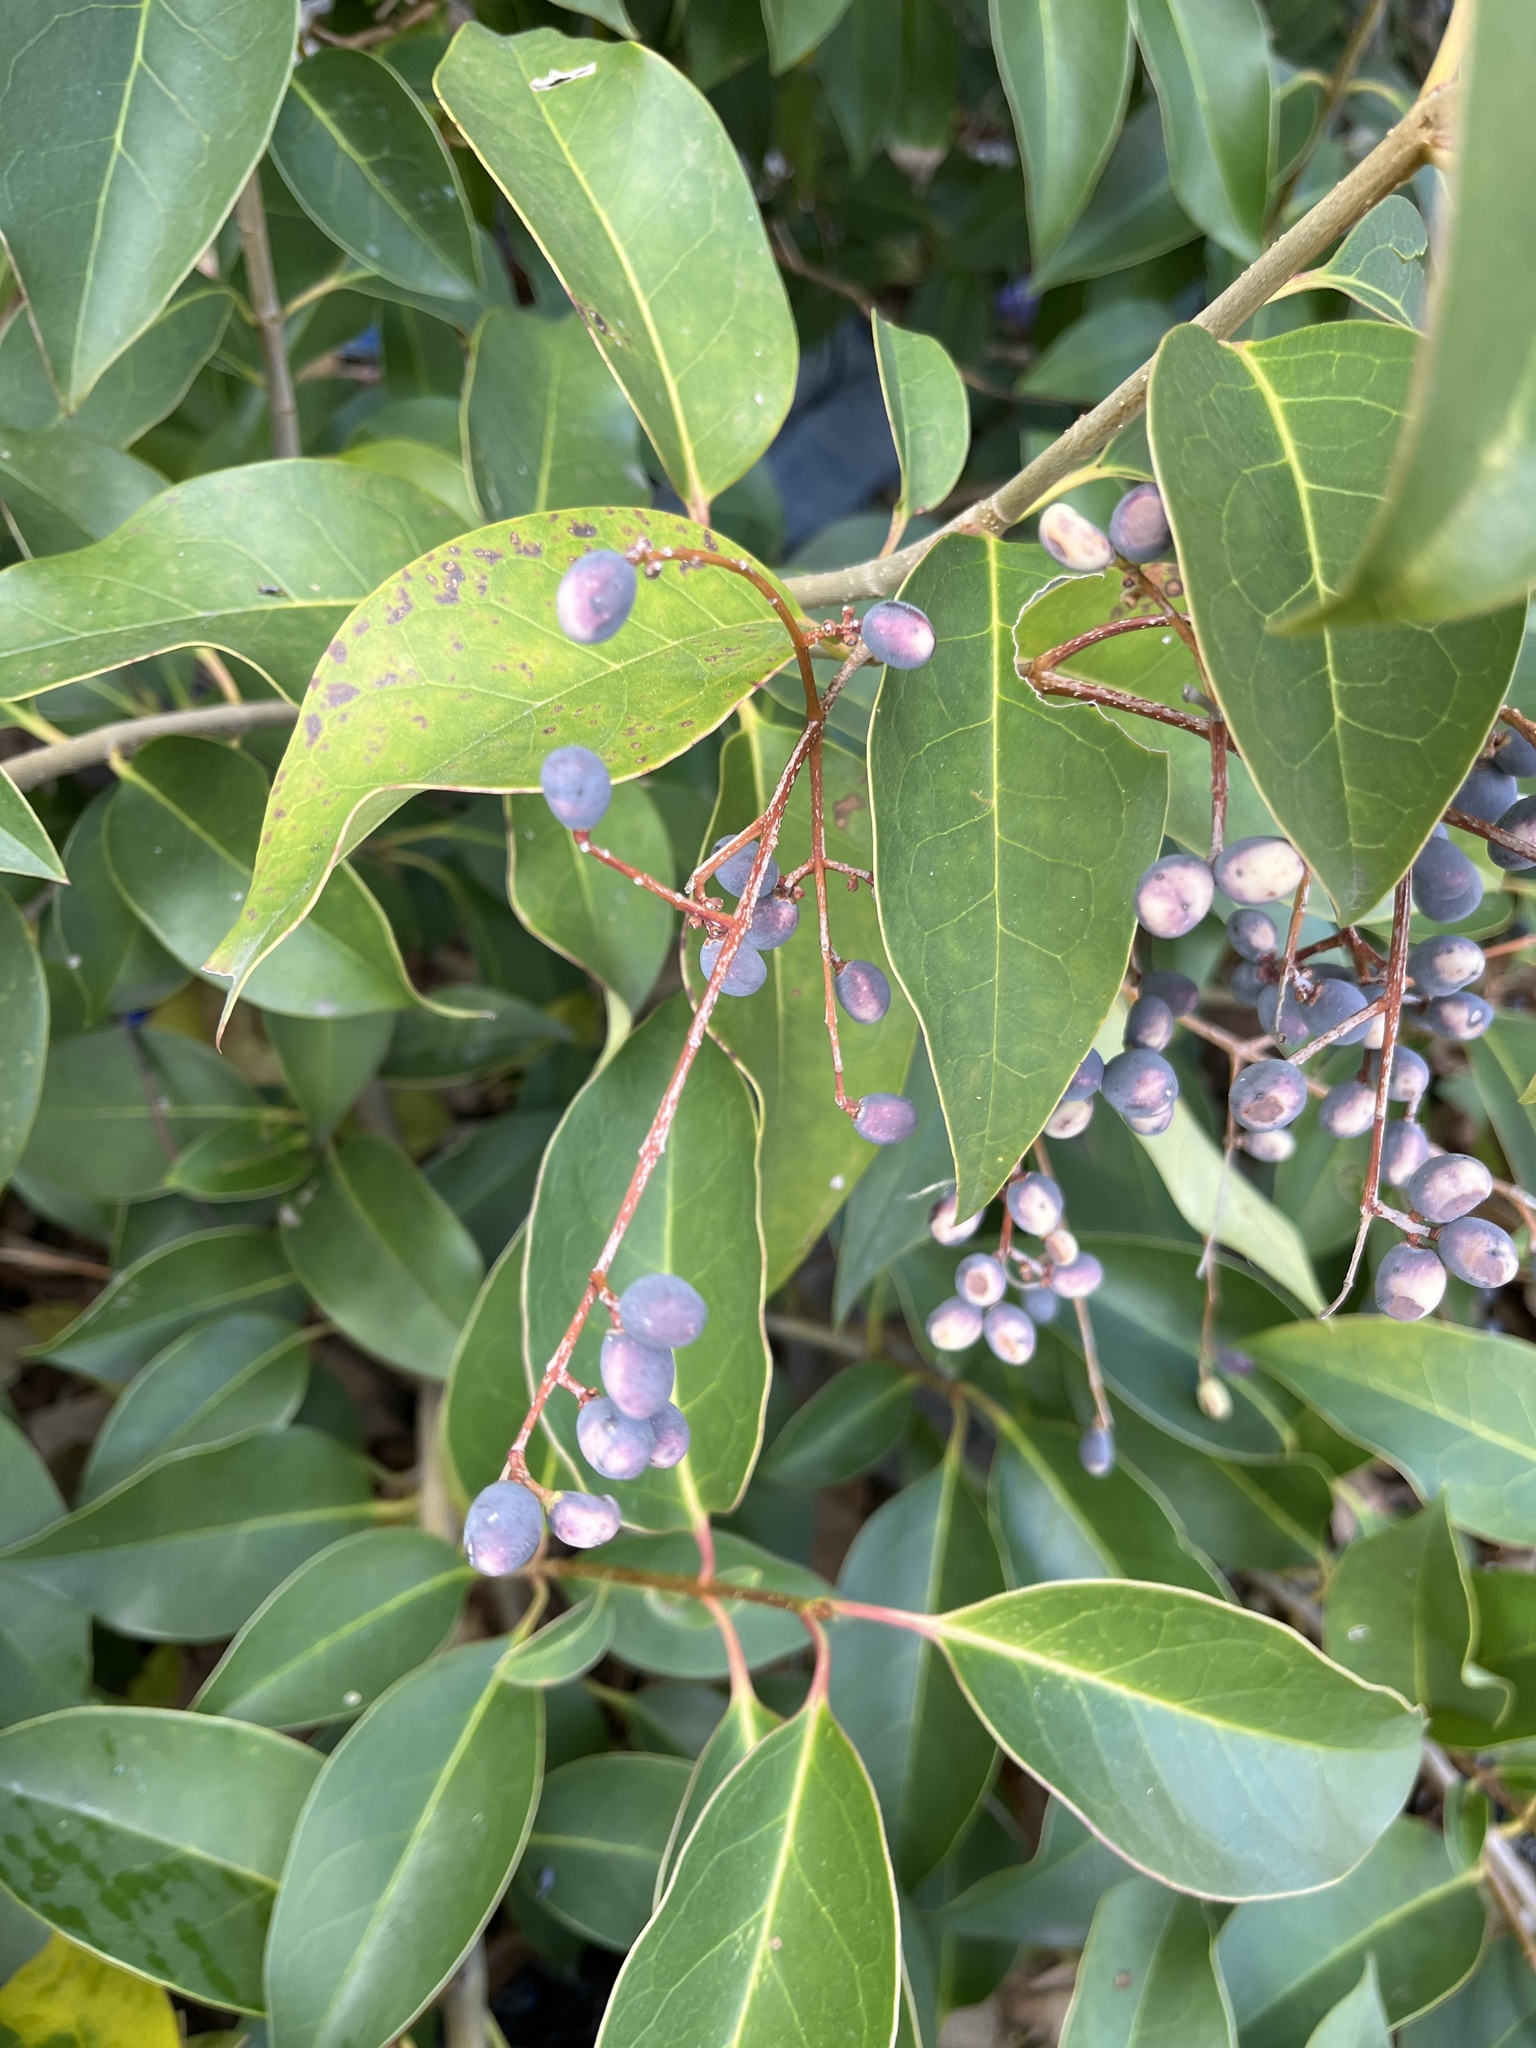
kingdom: Plantae
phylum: Tracheophyta
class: Magnoliopsida
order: Lamiales
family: Oleaceae
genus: Ligustrum
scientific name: Ligustrum lucidum
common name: Glossy privet
